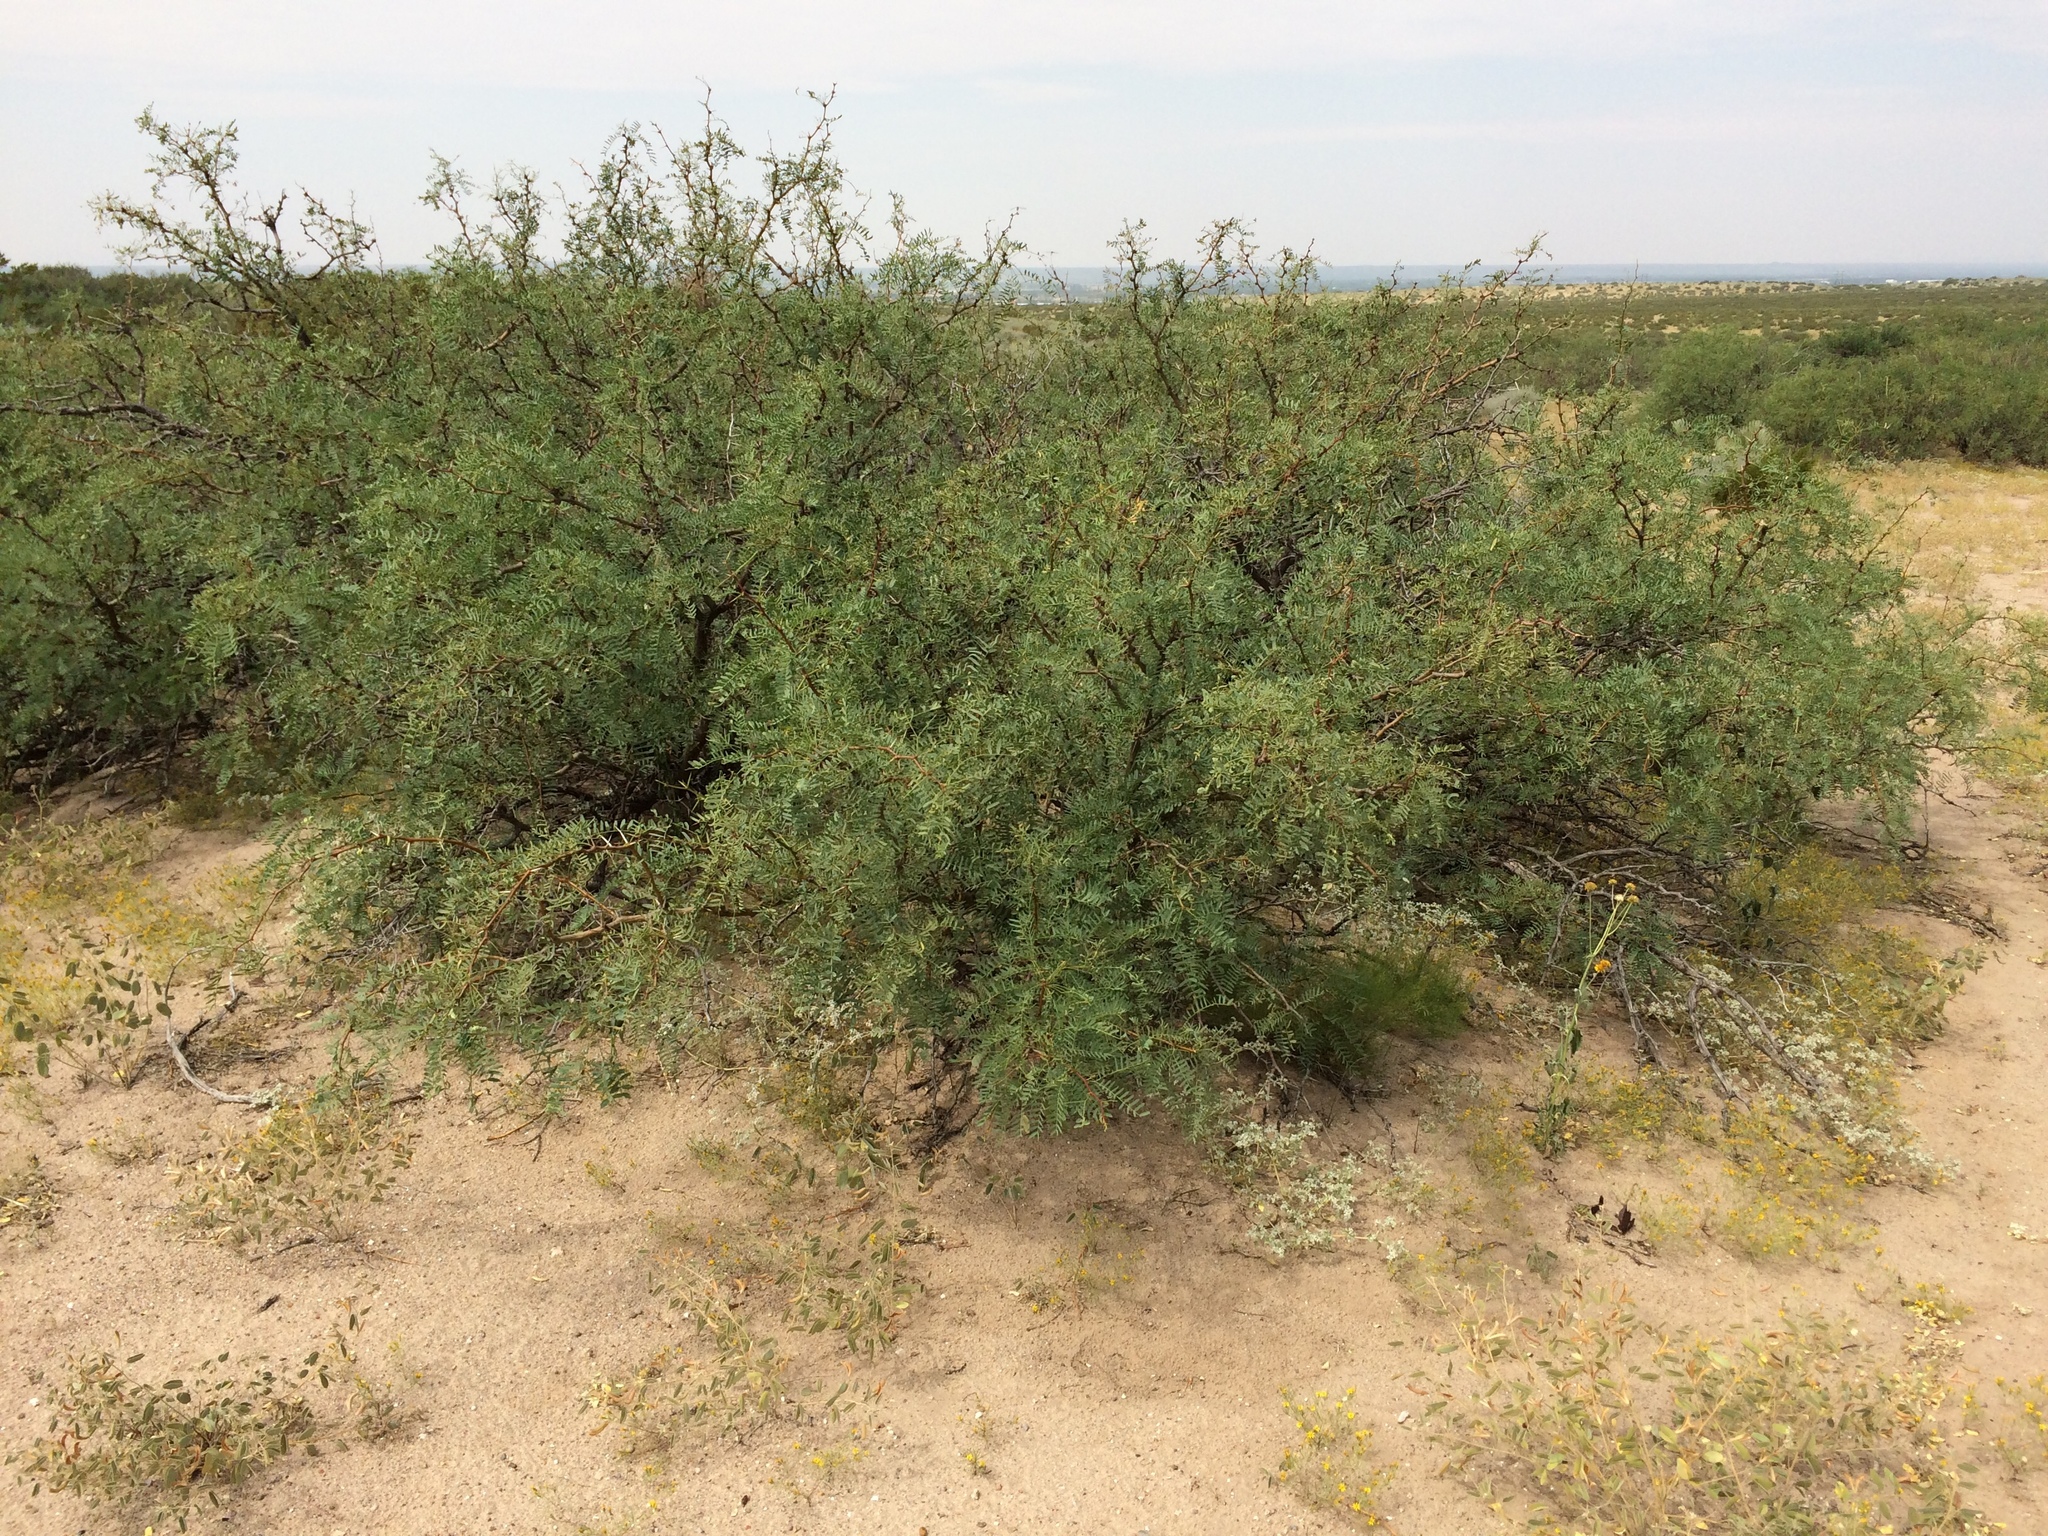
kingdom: Plantae
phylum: Tracheophyta
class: Magnoliopsida
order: Fabales
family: Fabaceae
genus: Prosopis
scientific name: Prosopis glandulosa
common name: Honey mesquite
